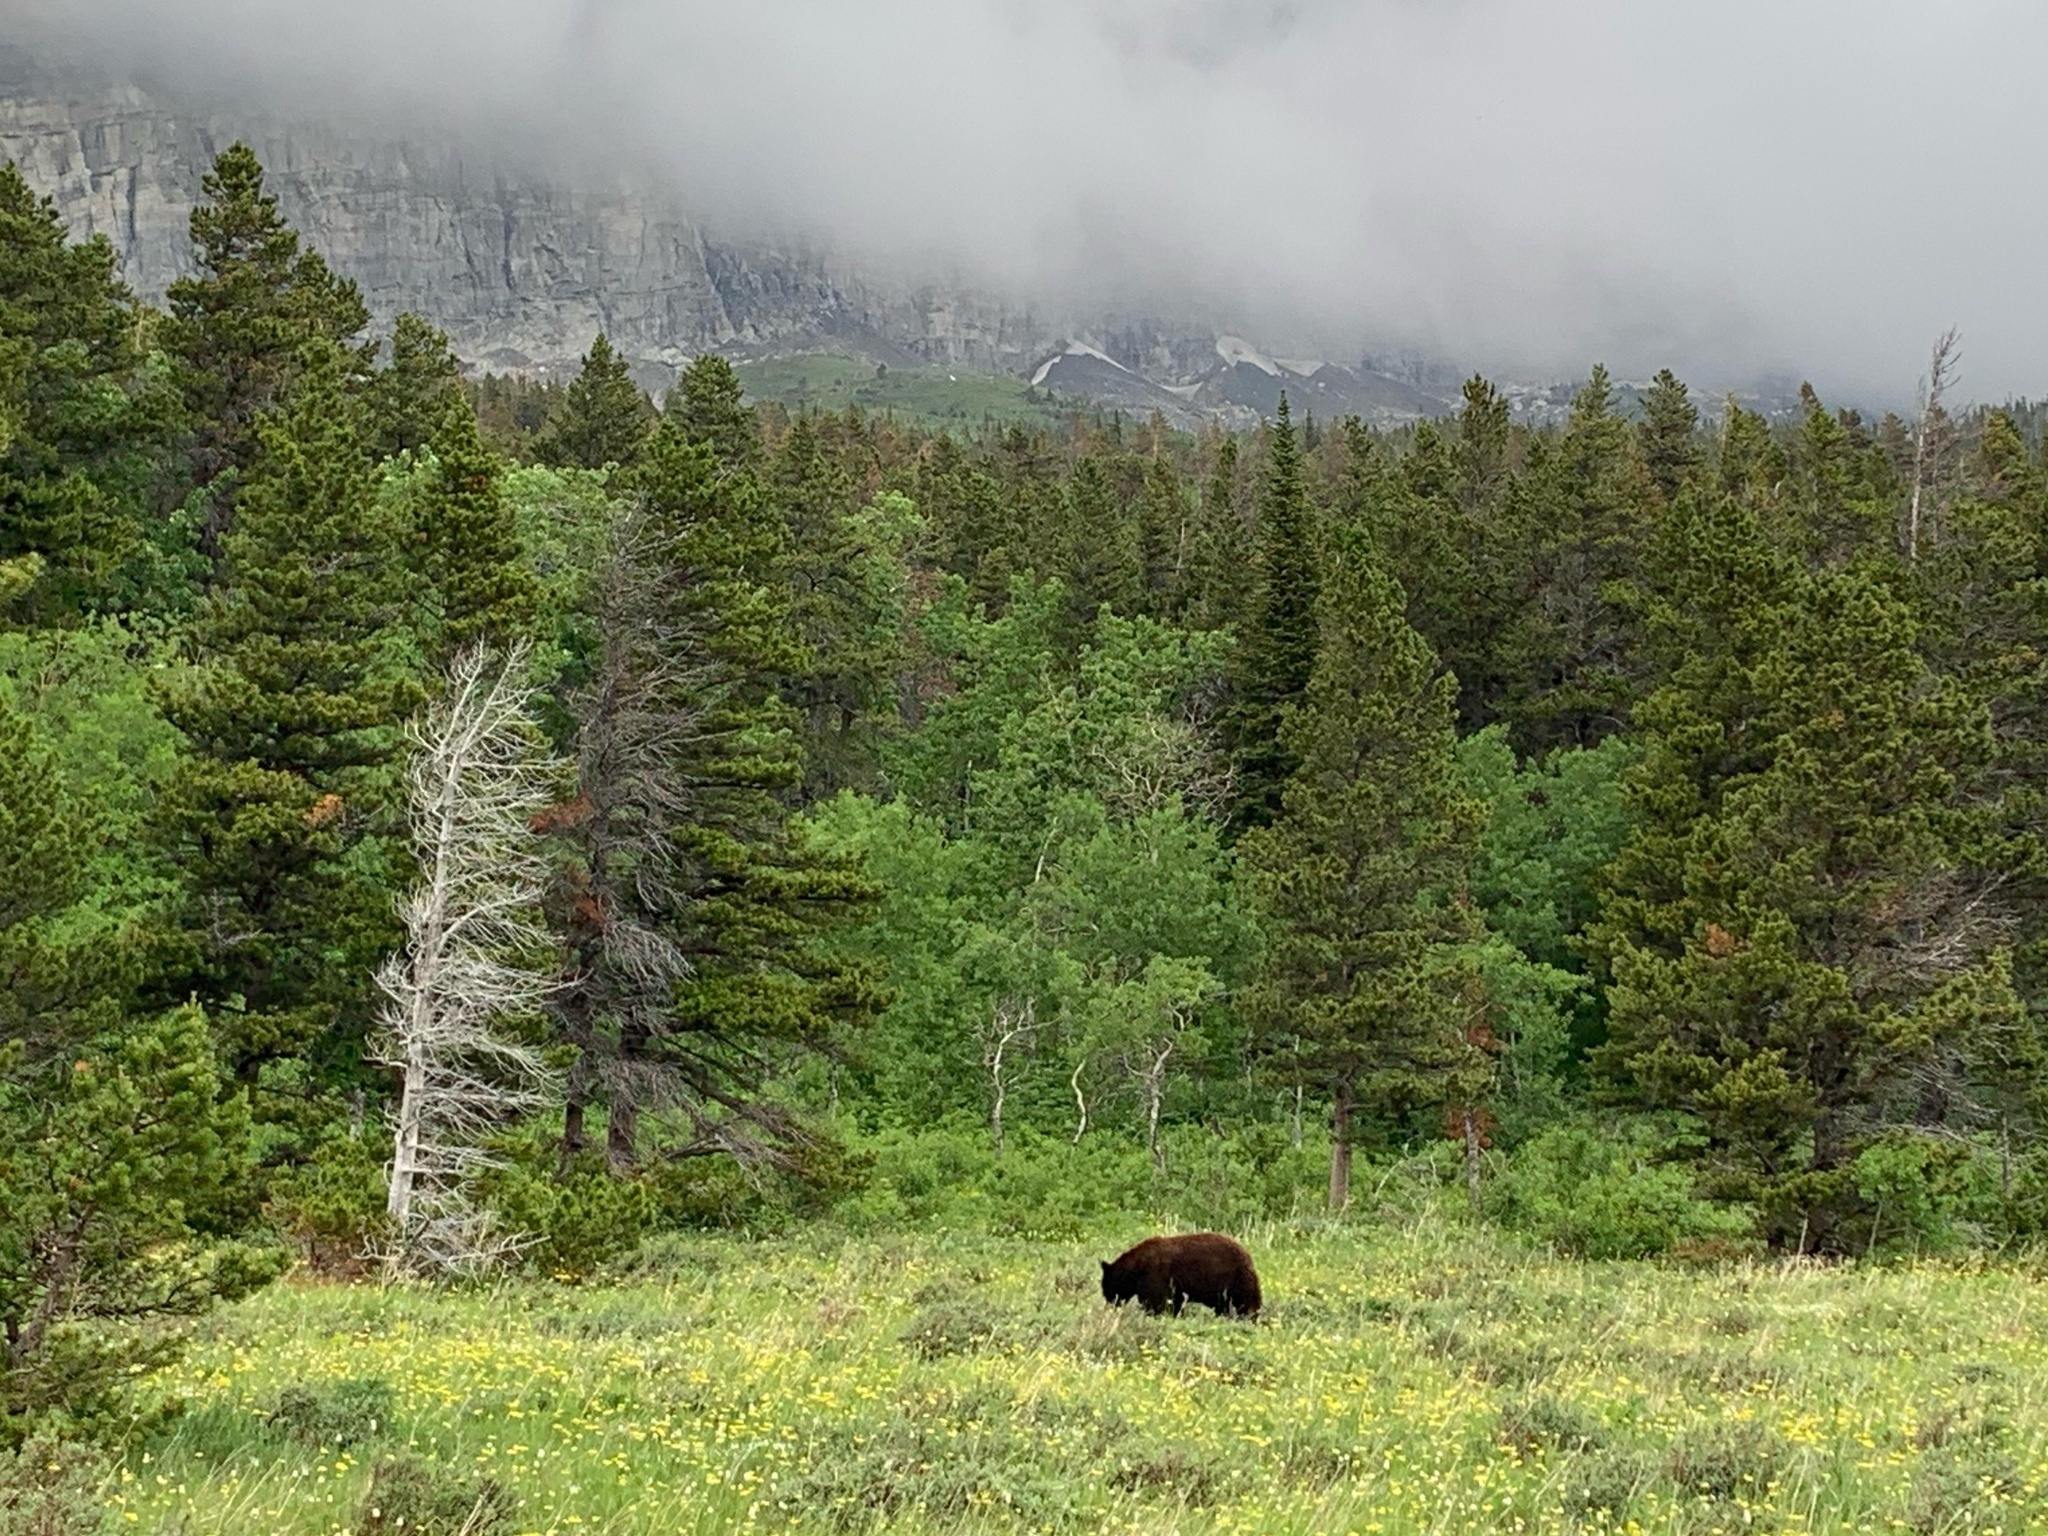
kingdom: Animalia
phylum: Chordata
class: Mammalia
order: Carnivora
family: Ursidae
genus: Ursus
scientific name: Ursus americanus
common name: American black bear
